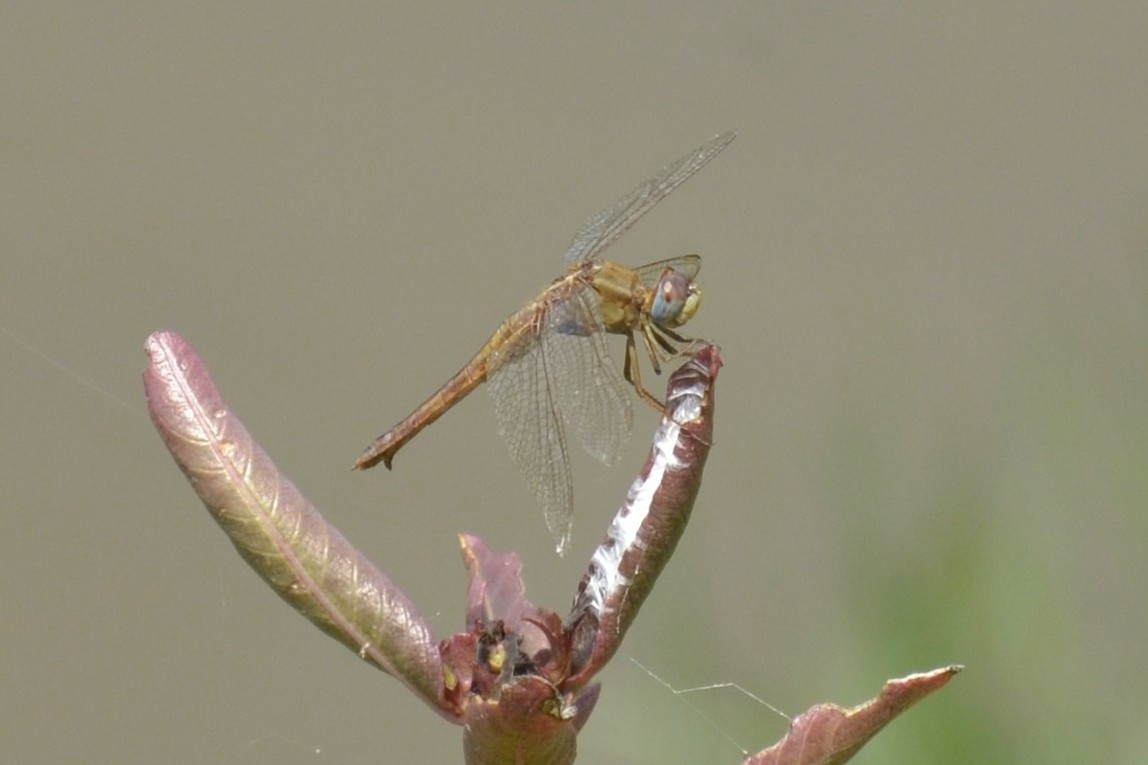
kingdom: Animalia
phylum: Arthropoda
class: Insecta
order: Odonata
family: Libellulidae
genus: Crocothemis
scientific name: Crocothemis servilia
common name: Scarlet skimmer
